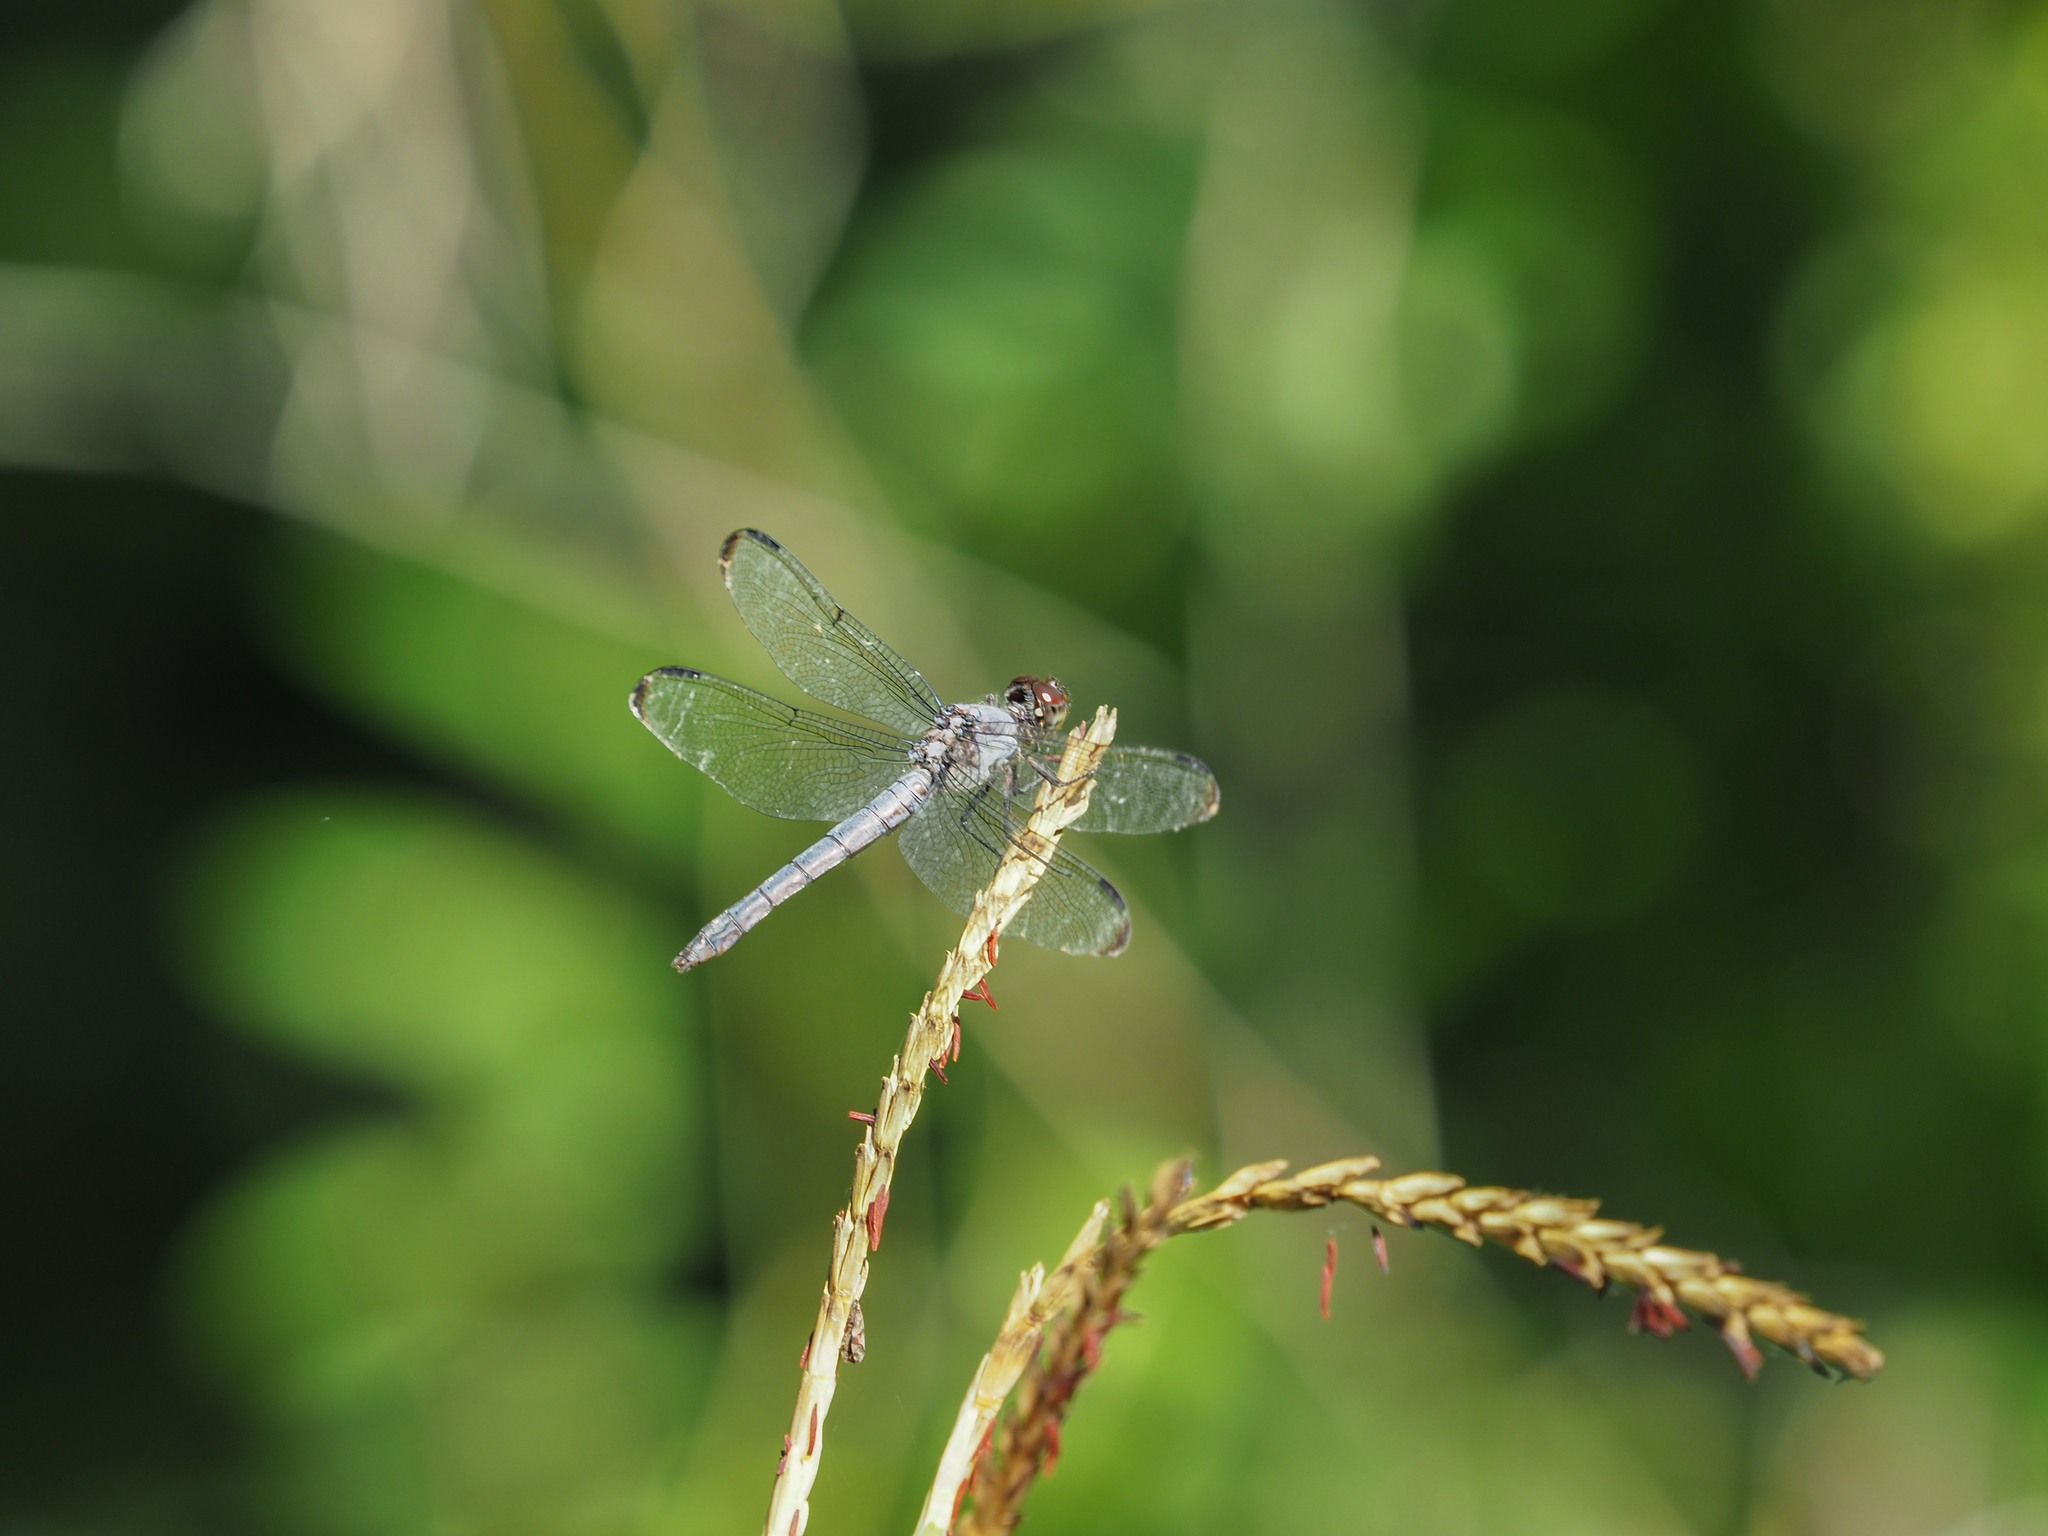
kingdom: Animalia
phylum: Arthropoda
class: Insecta
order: Odonata
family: Libellulidae
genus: Libellula
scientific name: Libellula incesta
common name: Slaty skimmer
